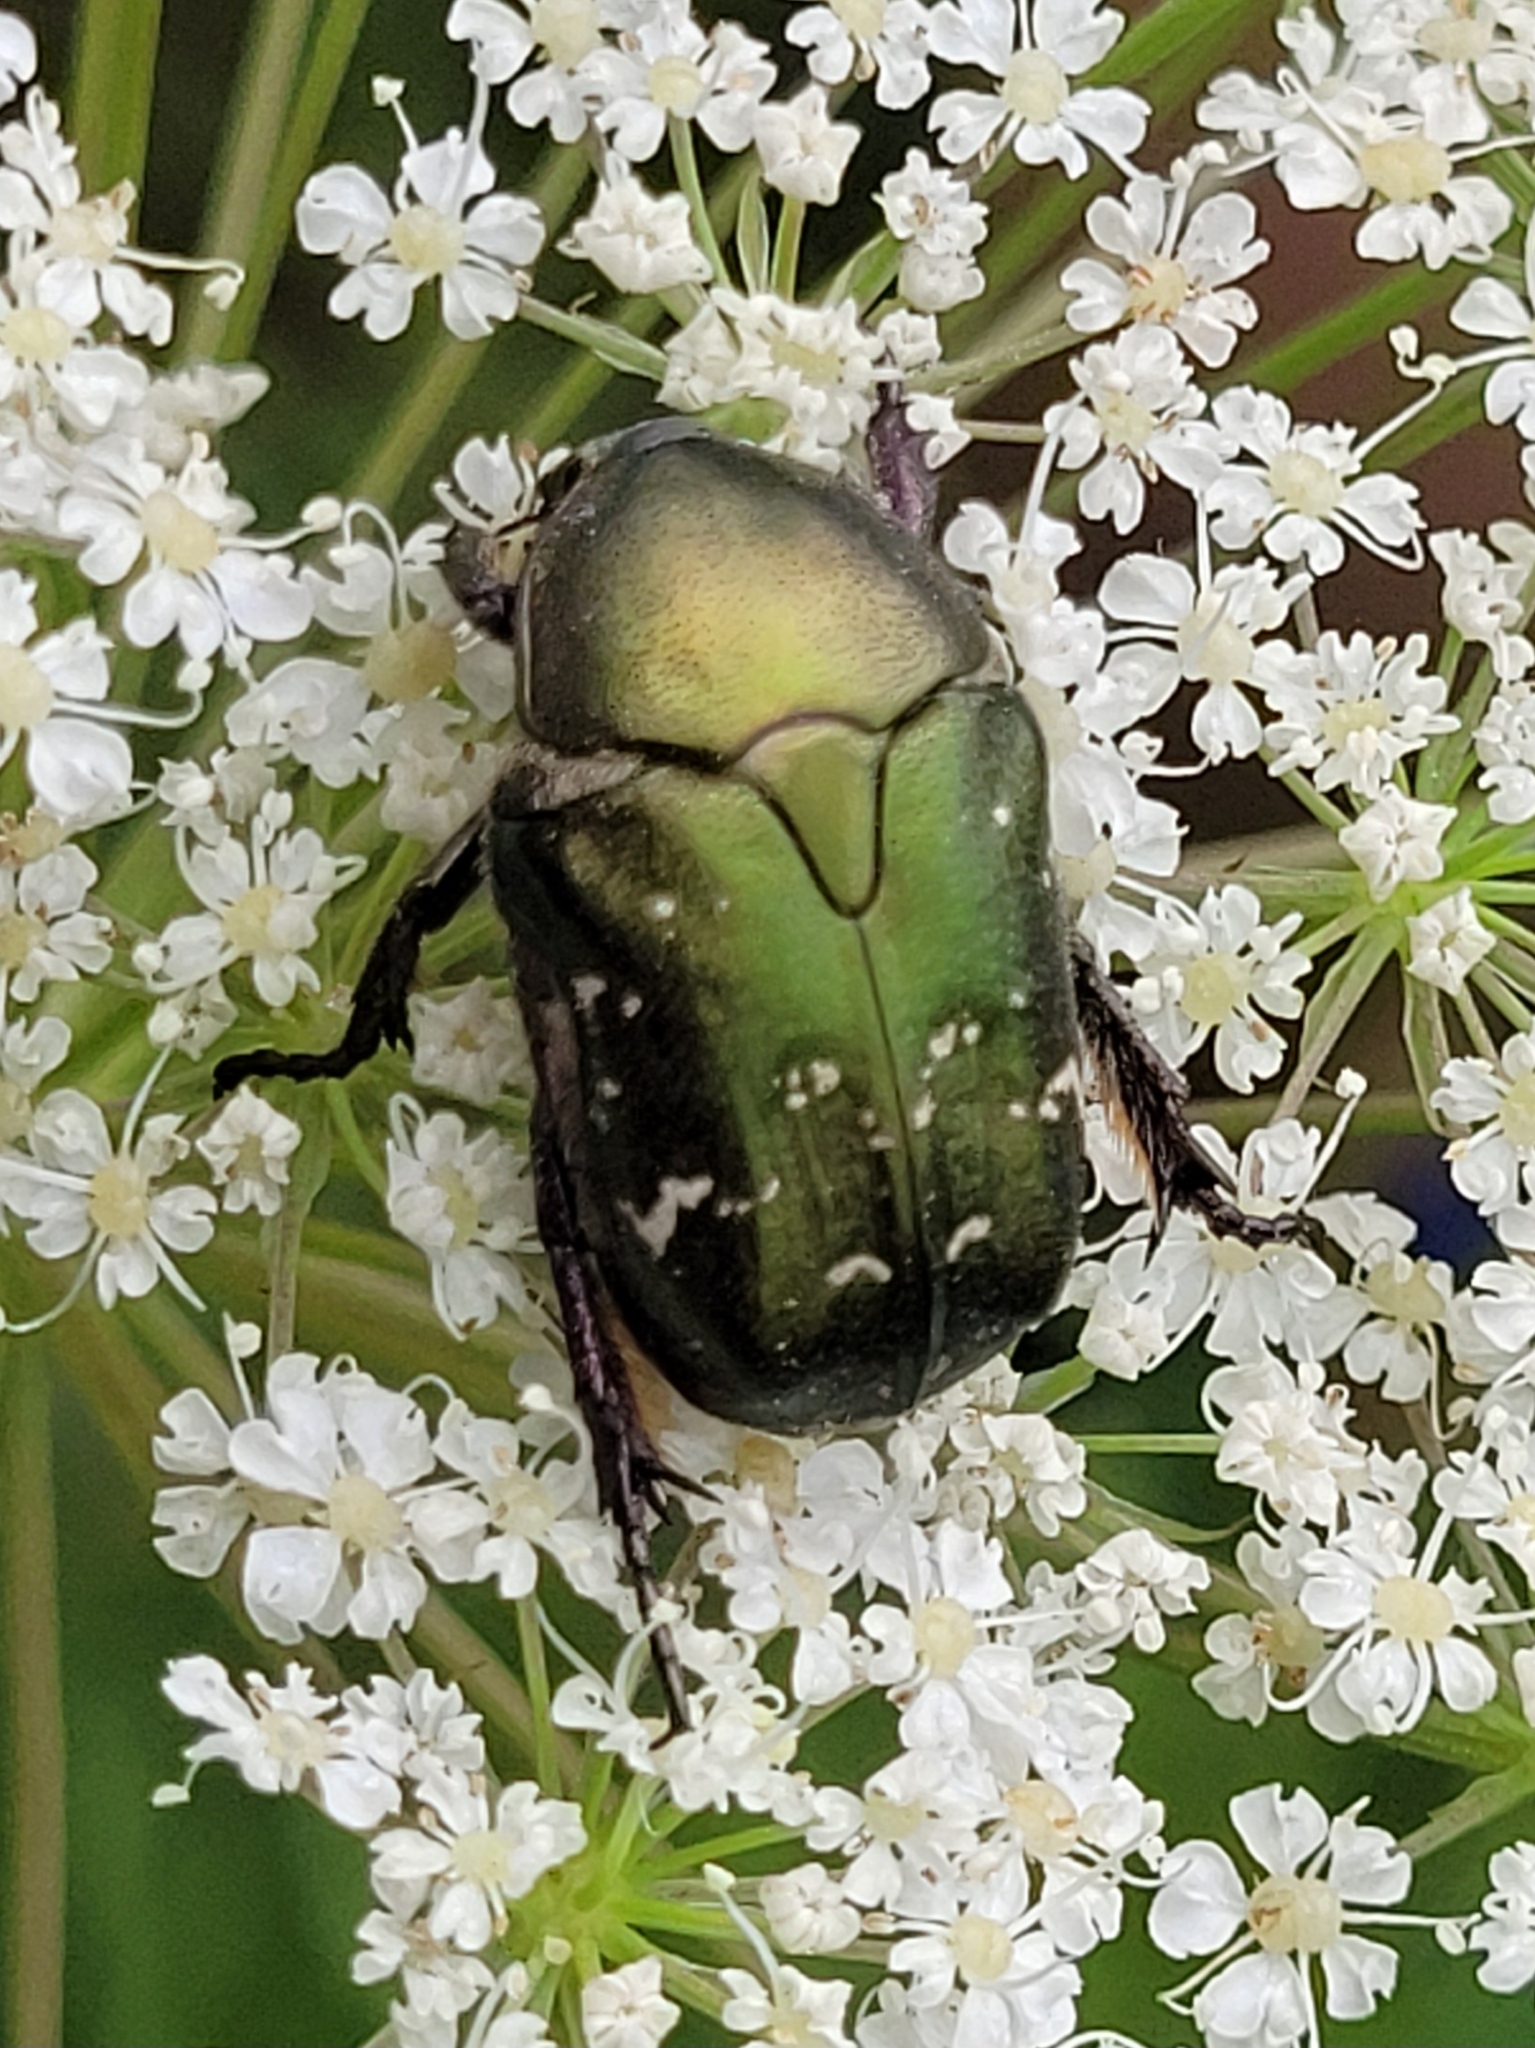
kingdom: Animalia
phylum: Arthropoda
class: Insecta
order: Coleoptera
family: Scarabaeidae
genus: Protaetia
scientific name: Protaetia cuprea
